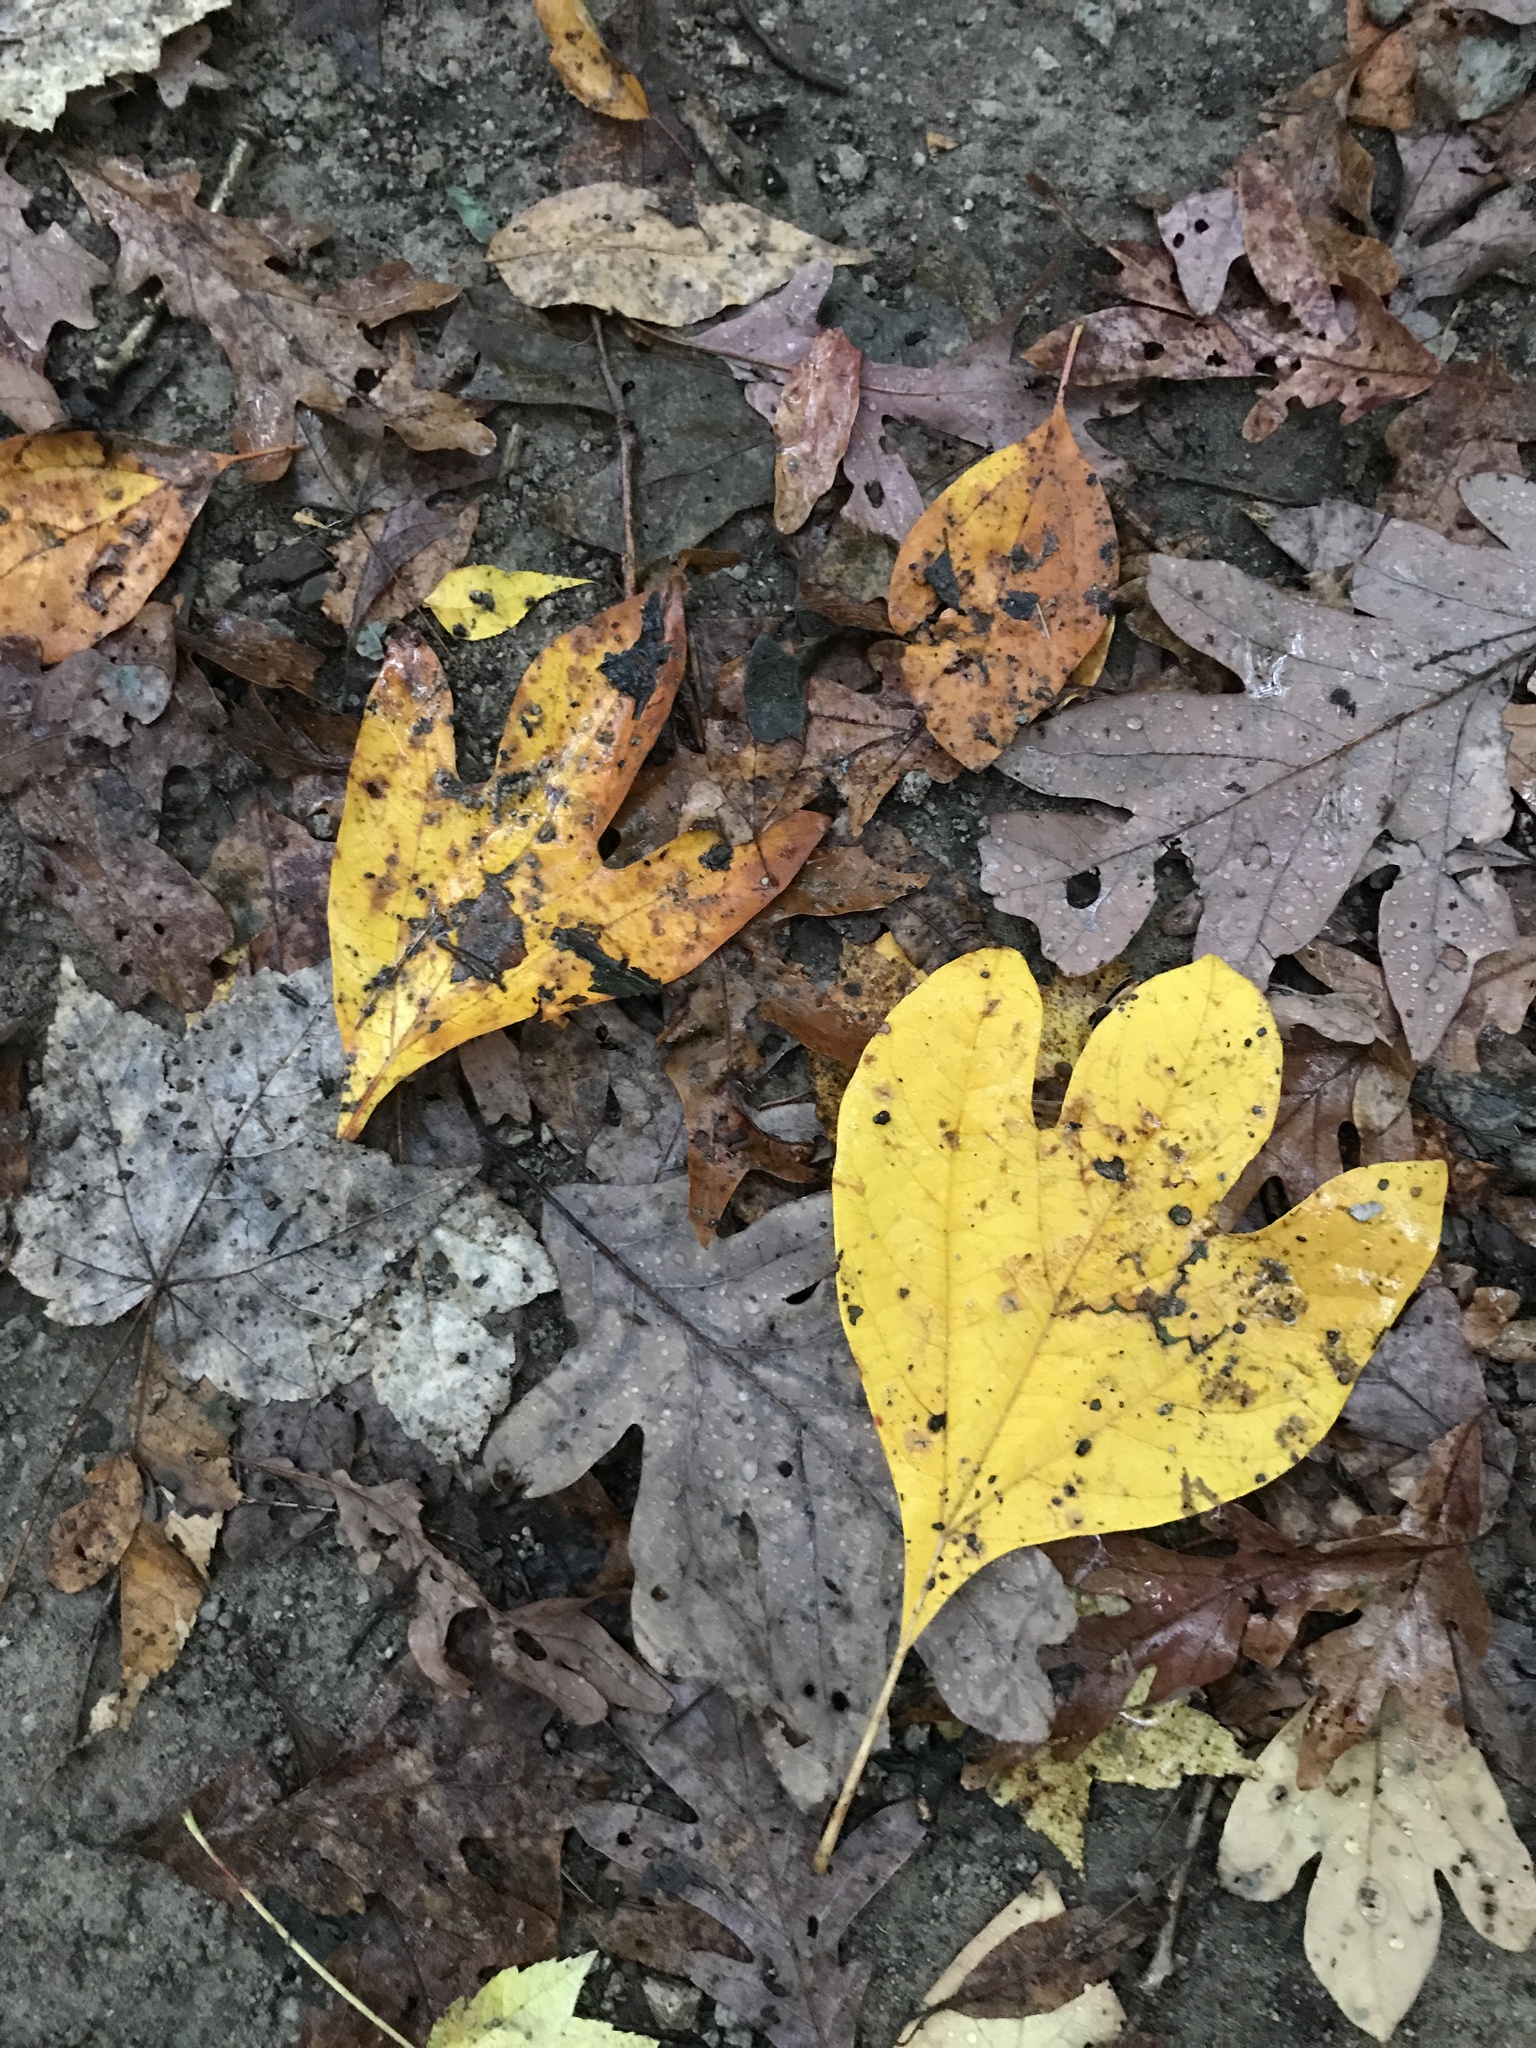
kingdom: Plantae
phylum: Tracheophyta
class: Magnoliopsida
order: Laurales
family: Lauraceae
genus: Sassafras
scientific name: Sassafras albidum
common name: Sassafras
